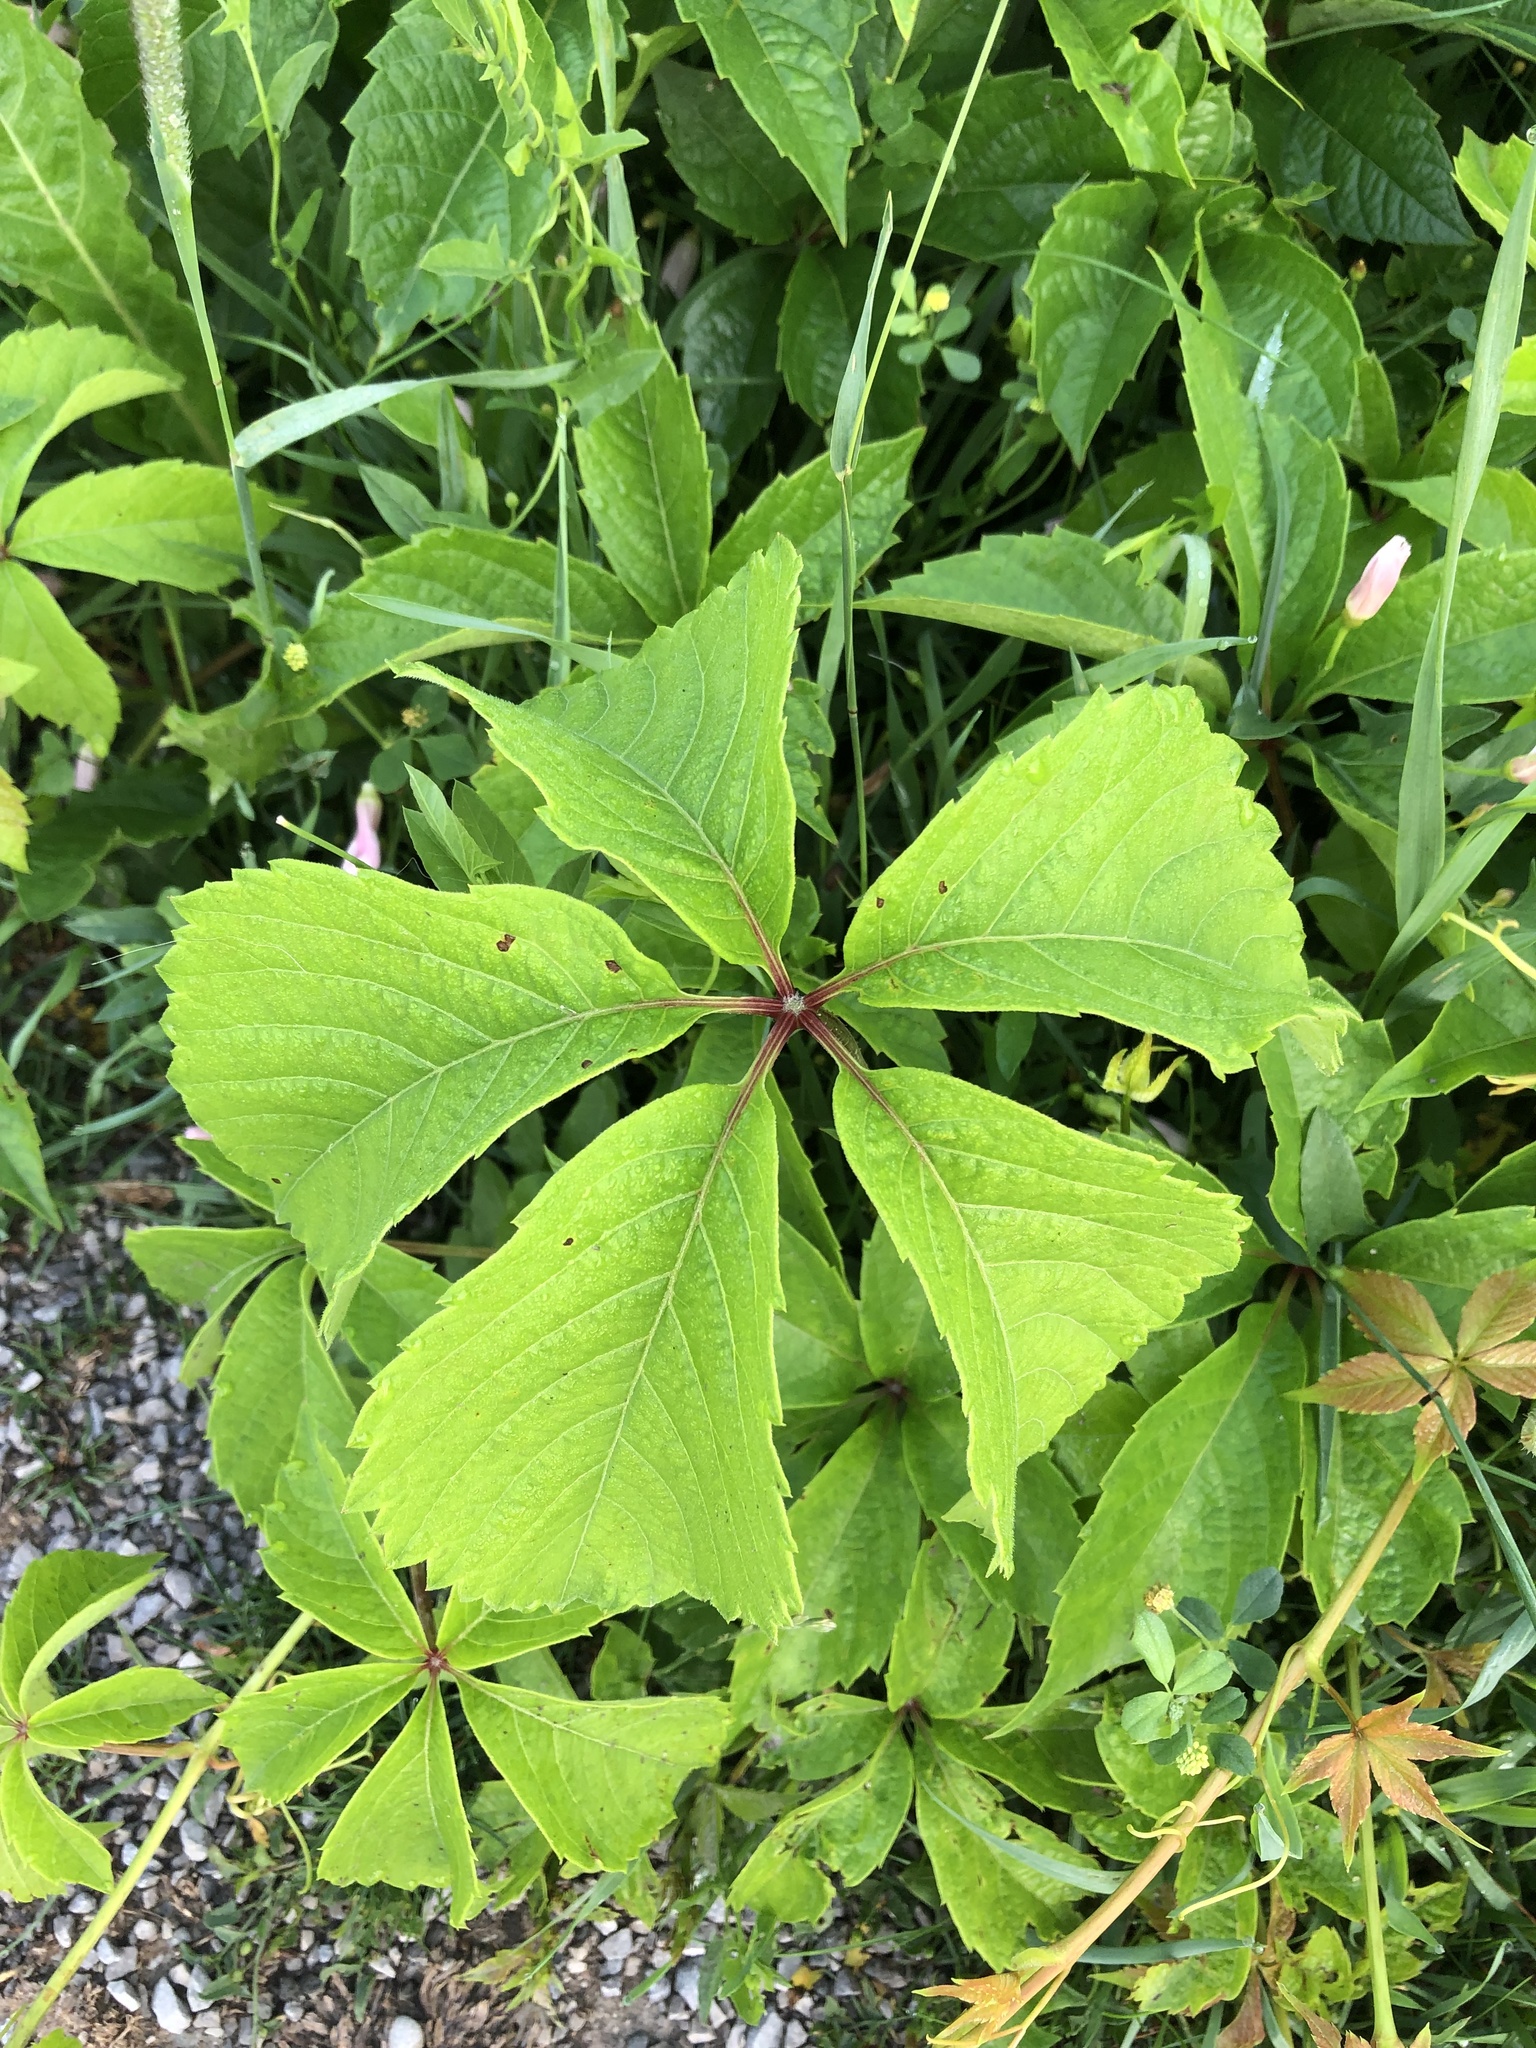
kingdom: Plantae
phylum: Tracheophyta
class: Magnoliopsida
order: Vitales
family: Vitaceae
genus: Parthenocissus
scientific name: Parthenocissus quinquefolia
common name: Virginia-creeper
